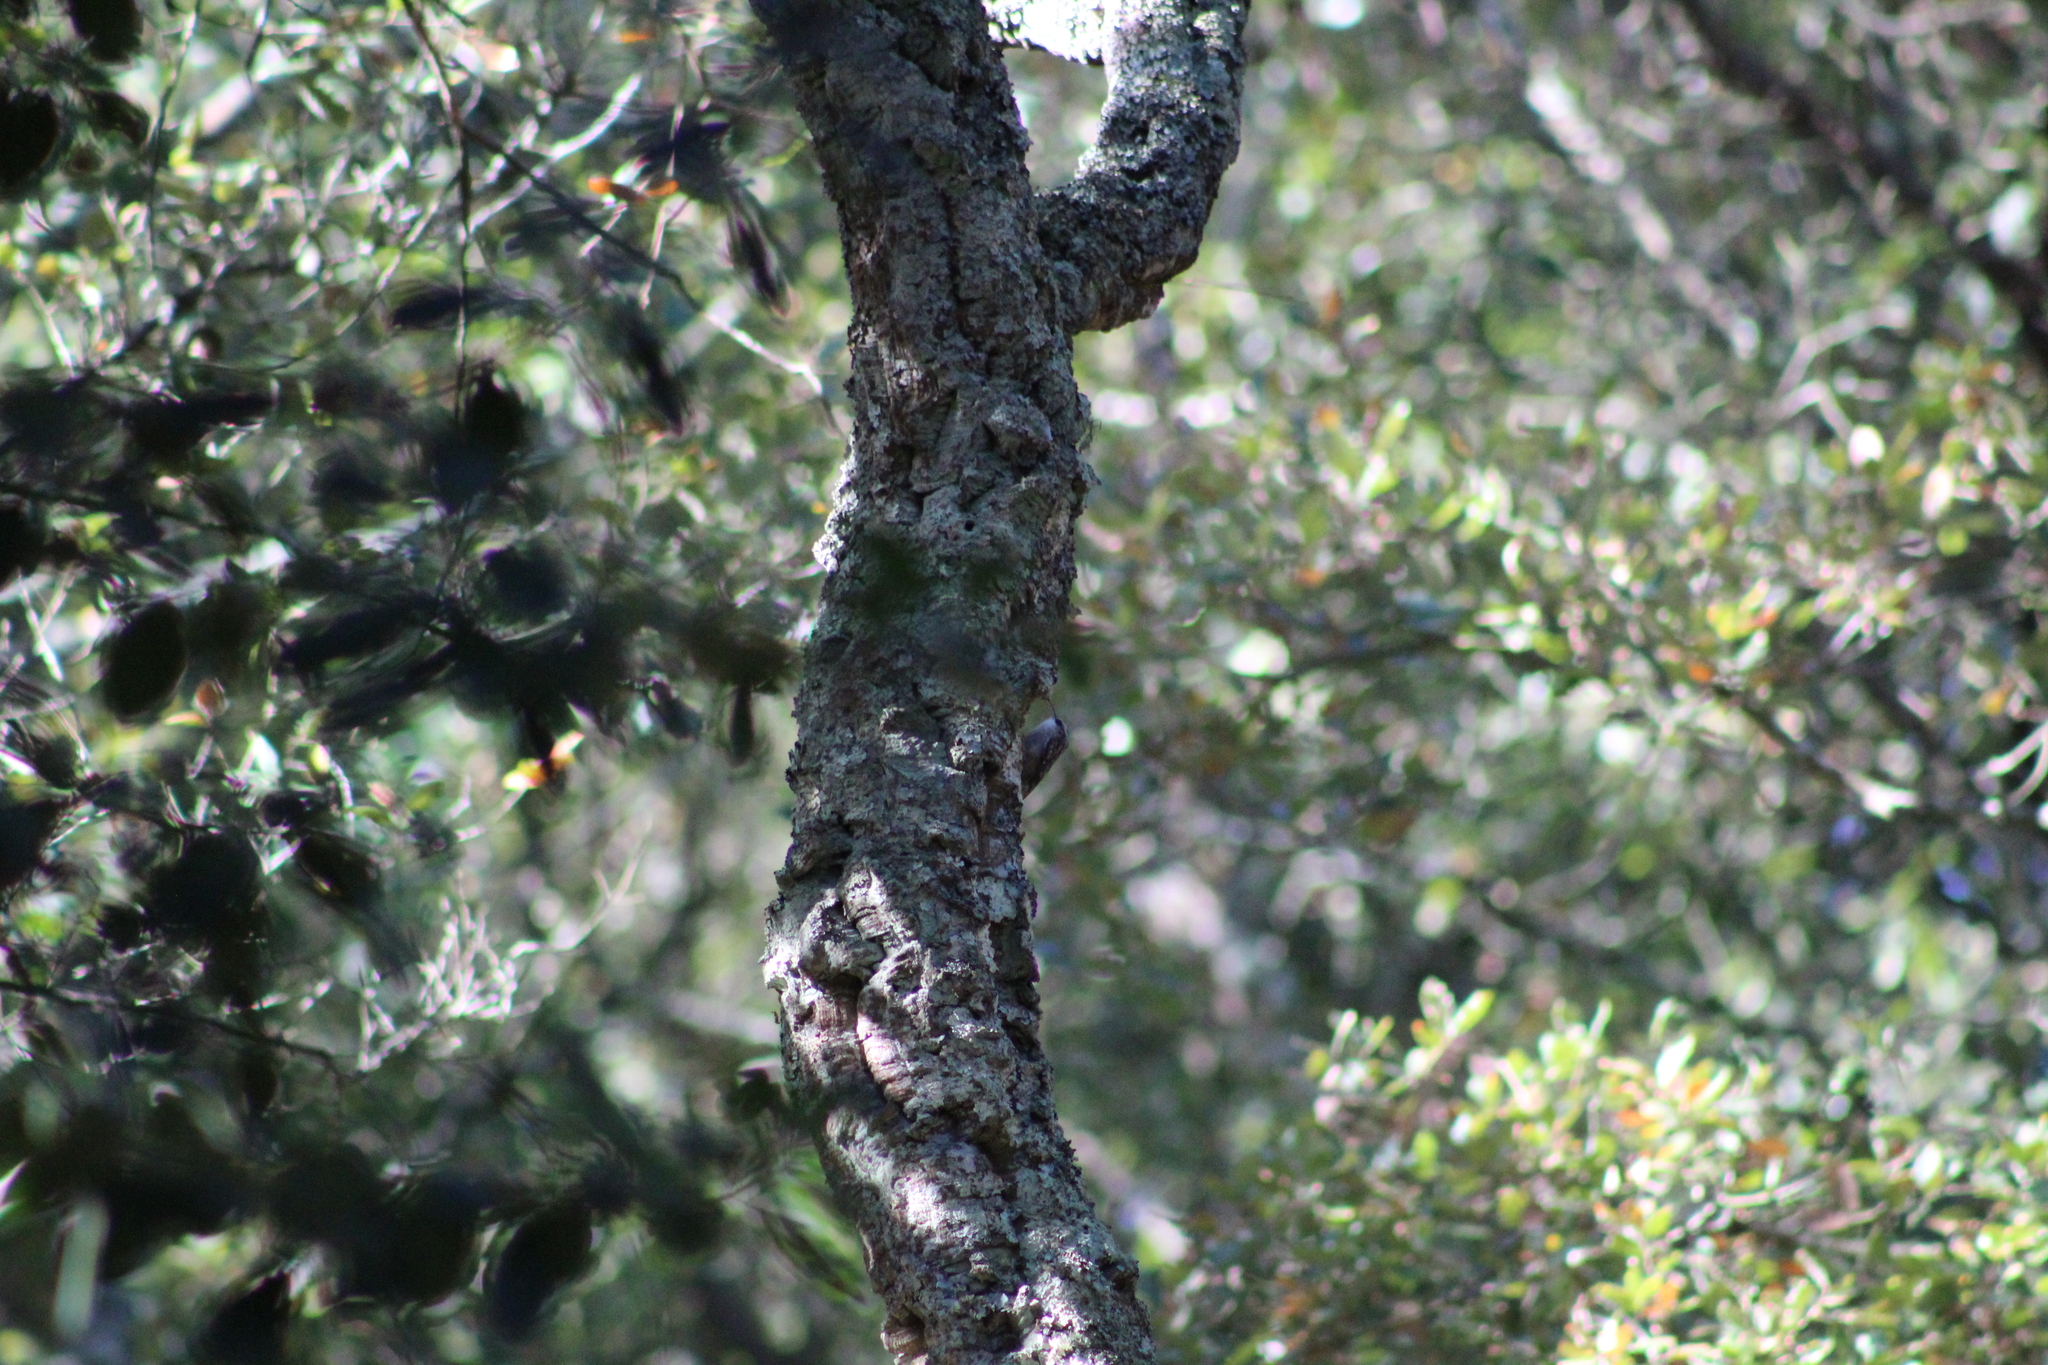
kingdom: Animalia
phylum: Chordata
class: Aves
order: Passeriformes
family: Certhiidae
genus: Certhia
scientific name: Certhia brachydactyla
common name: Short-toed treecreeper
